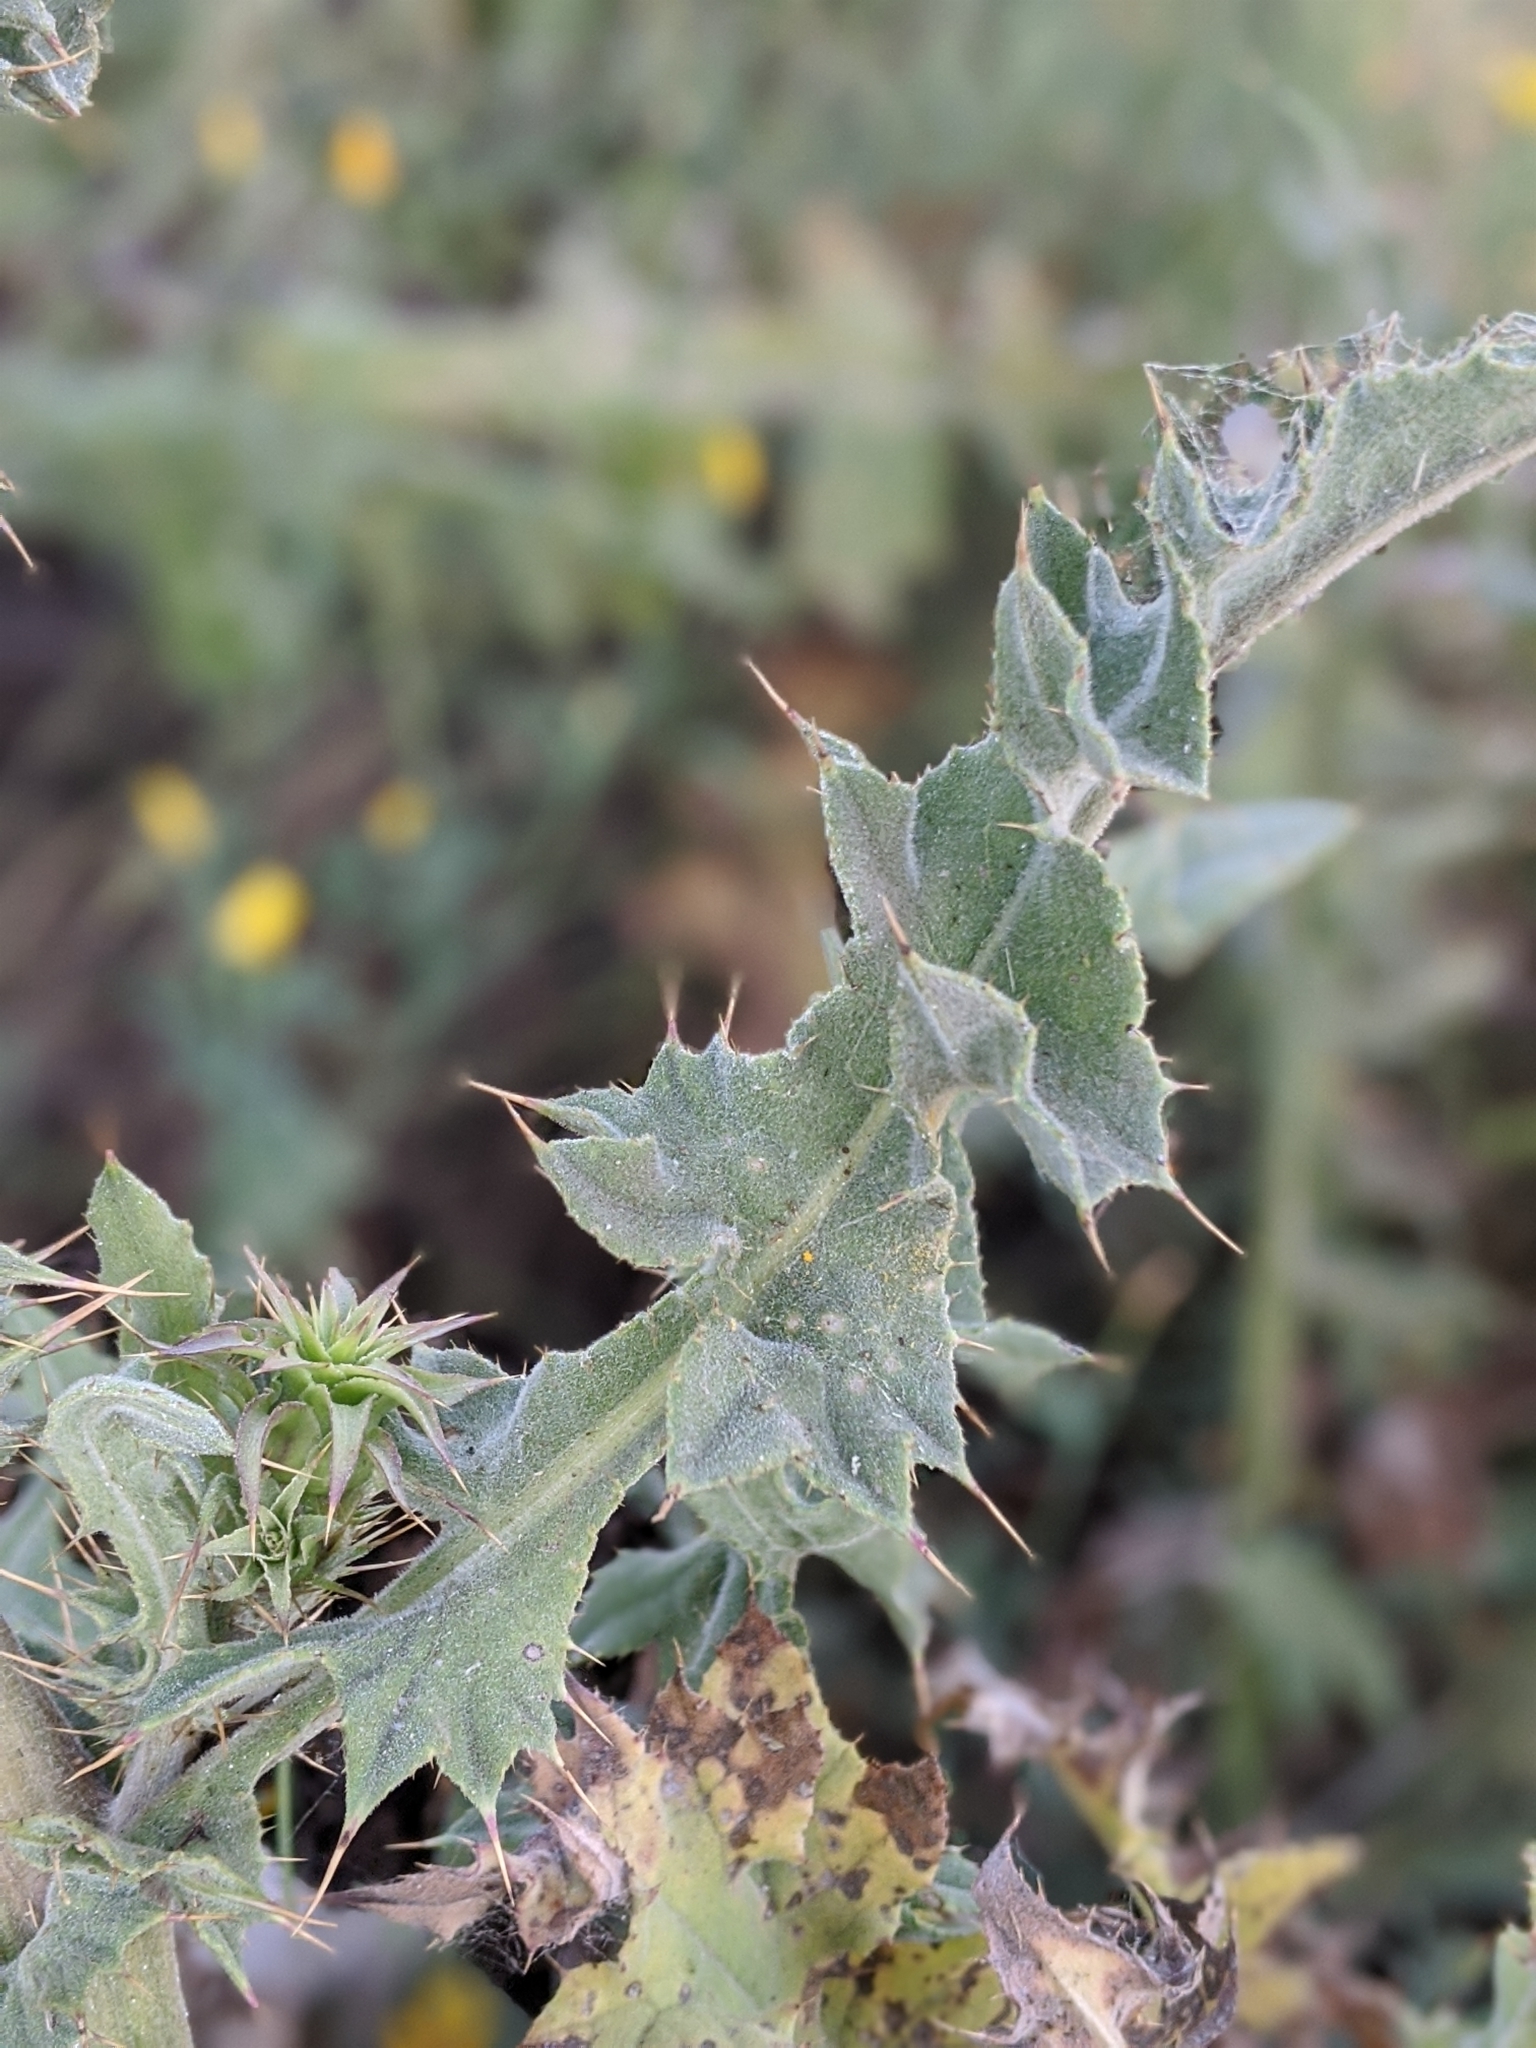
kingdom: Plantae
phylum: Tracheophyta
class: Magnoliopsida
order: Asterales
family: Asteraceae
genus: Cirsium
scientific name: Cirsium fontinale
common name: Fountain thistle
